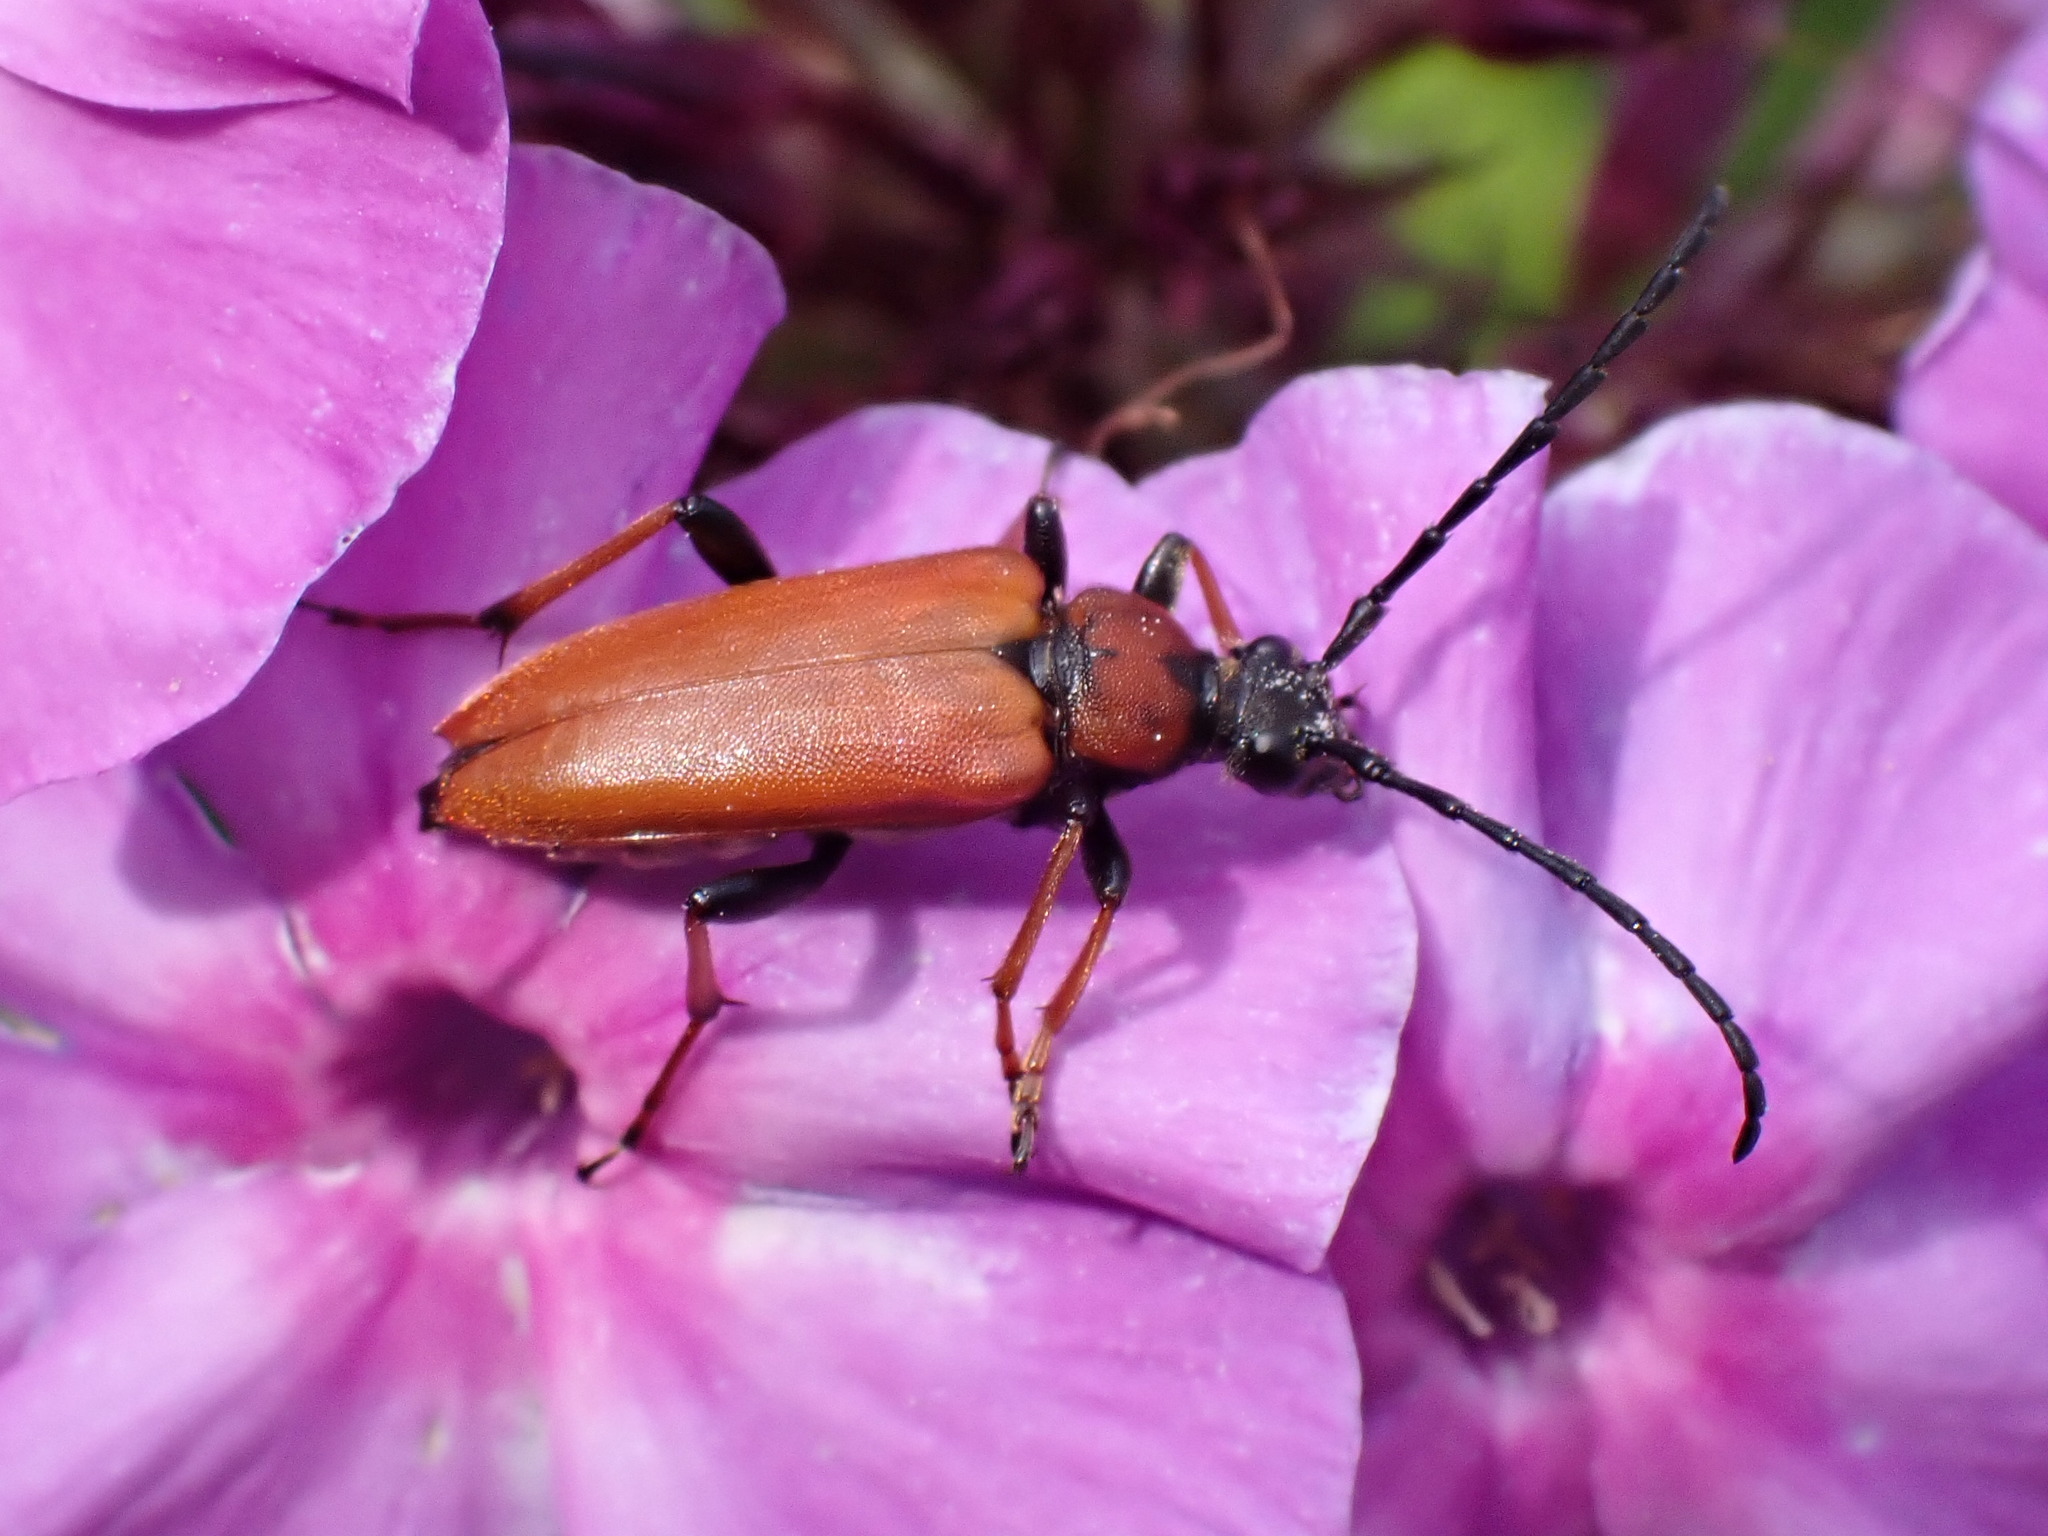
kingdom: Animalia
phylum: Arthropoda
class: Insecta
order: Coleoptera
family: Cerambycidae
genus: Stictoleptura
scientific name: Stictoleptura rubra
